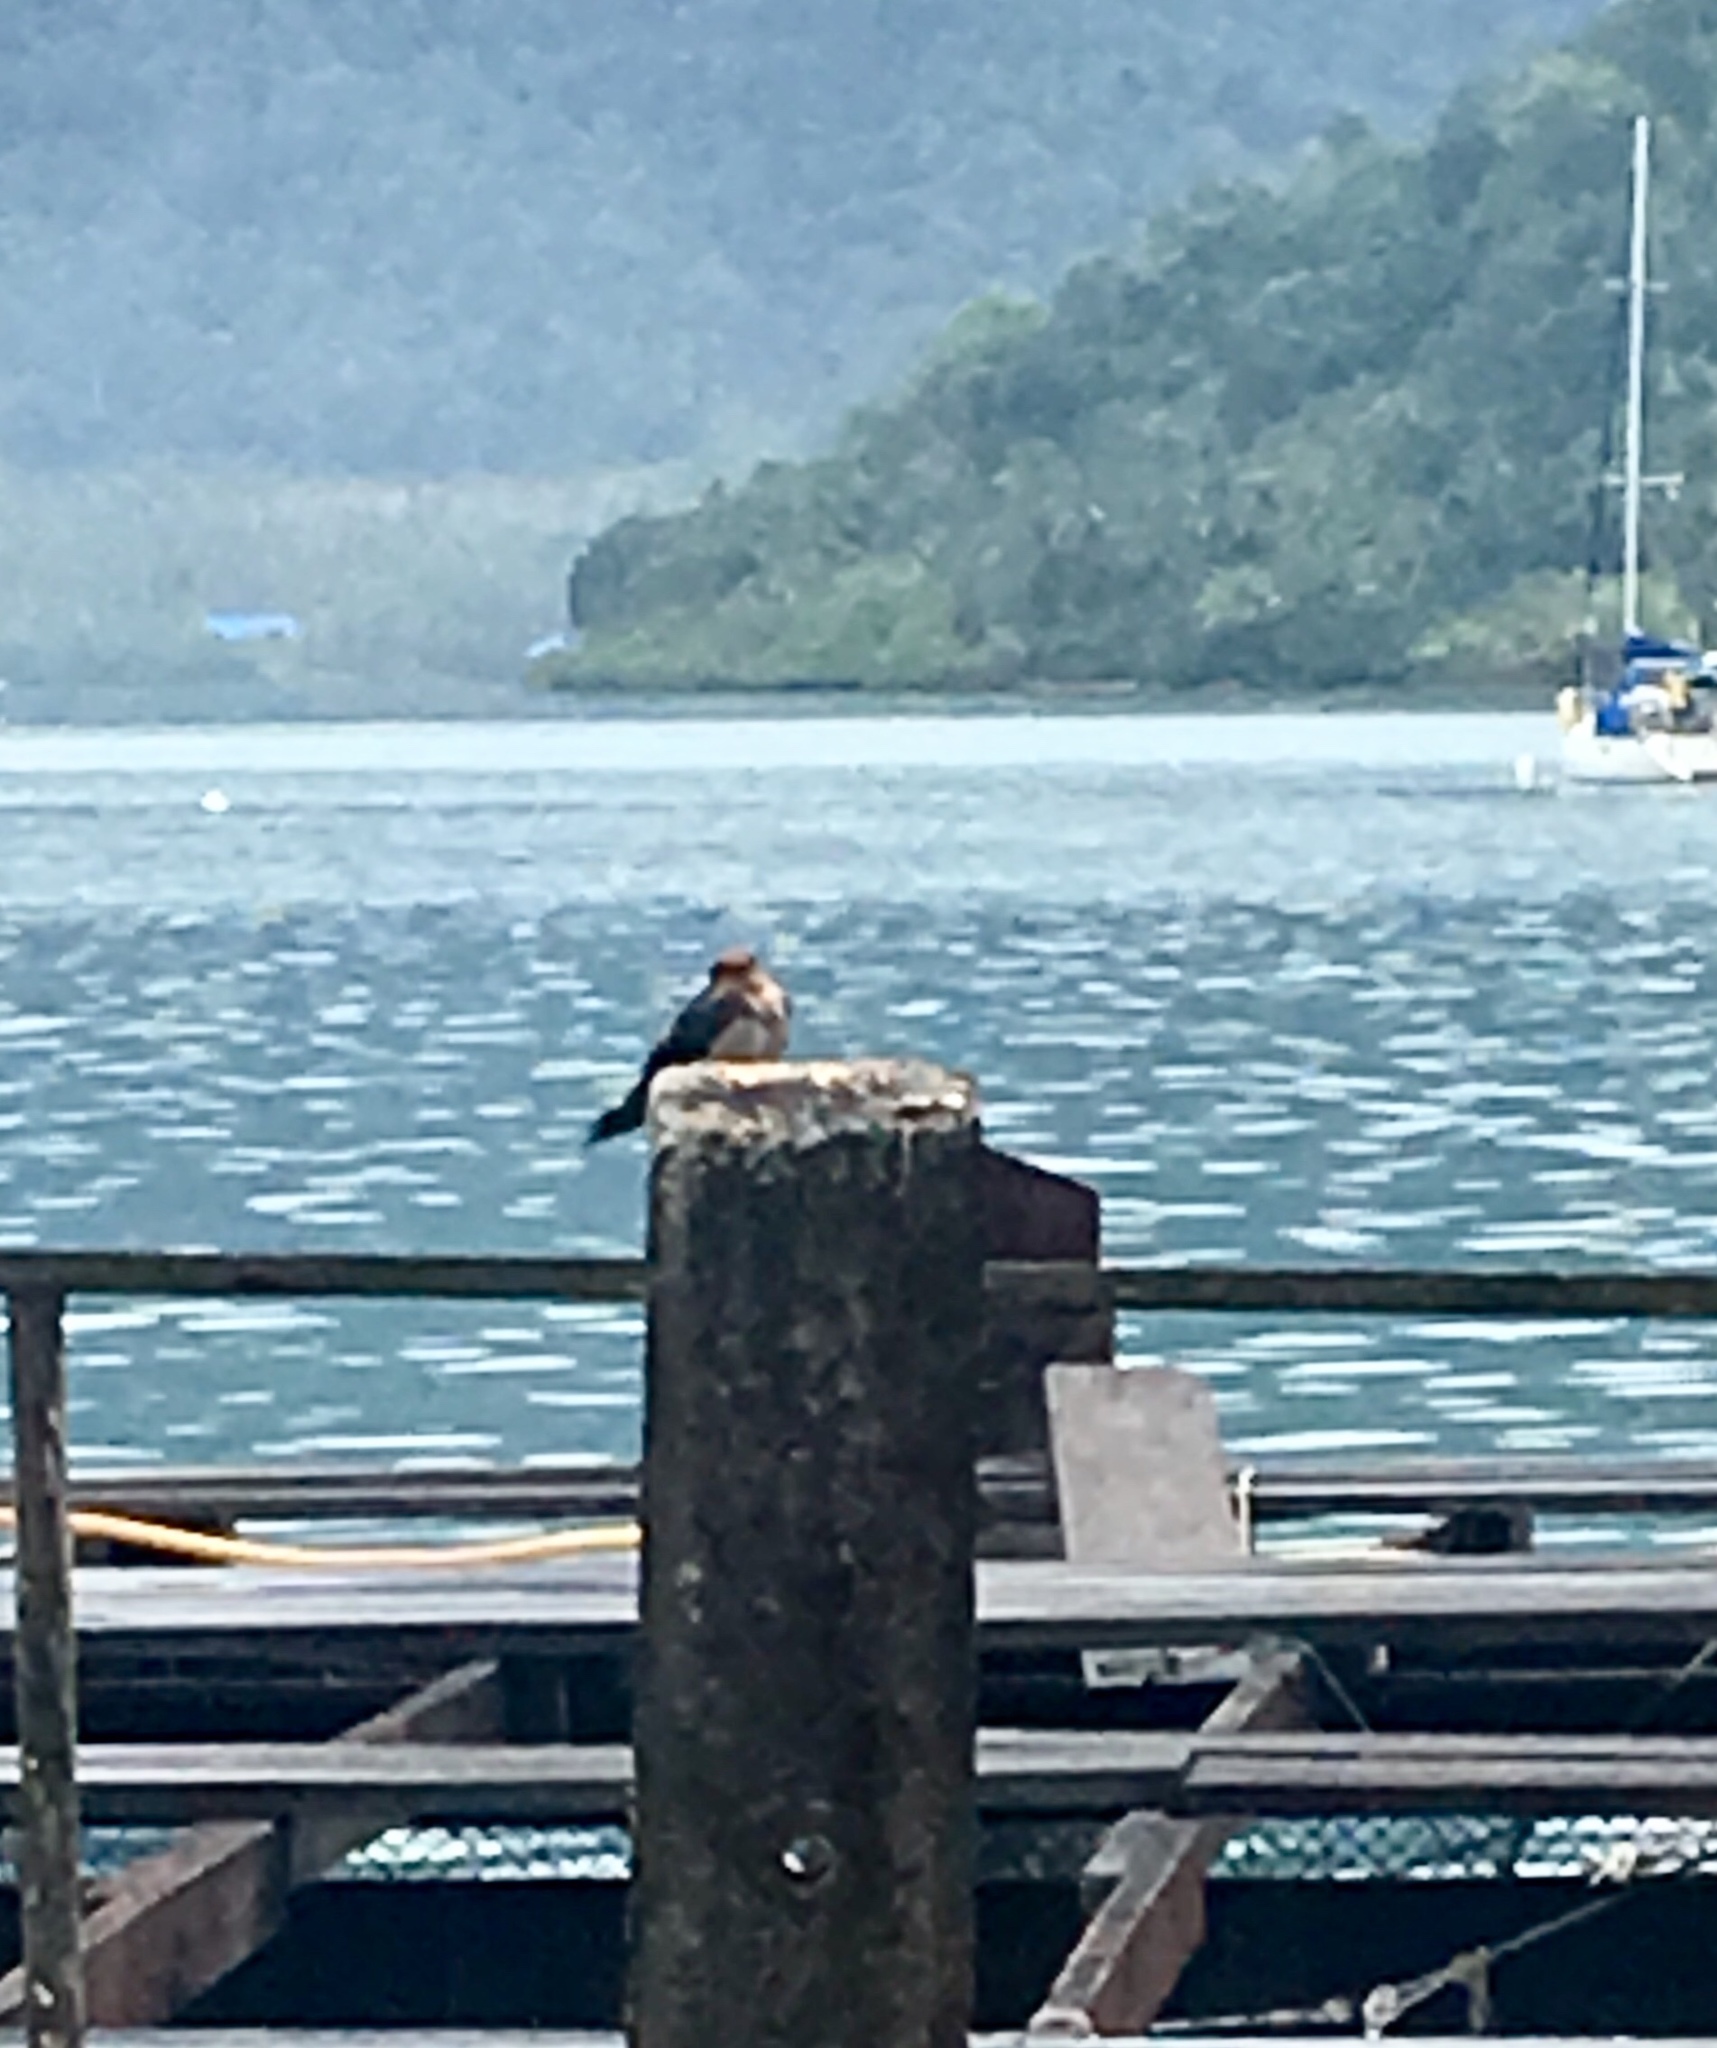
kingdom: Animalia
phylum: Chordata
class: Aves
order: Passeriformes
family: Hirundinidae
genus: Hirundo
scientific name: Hirundo tahitica
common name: Pacific swallow
